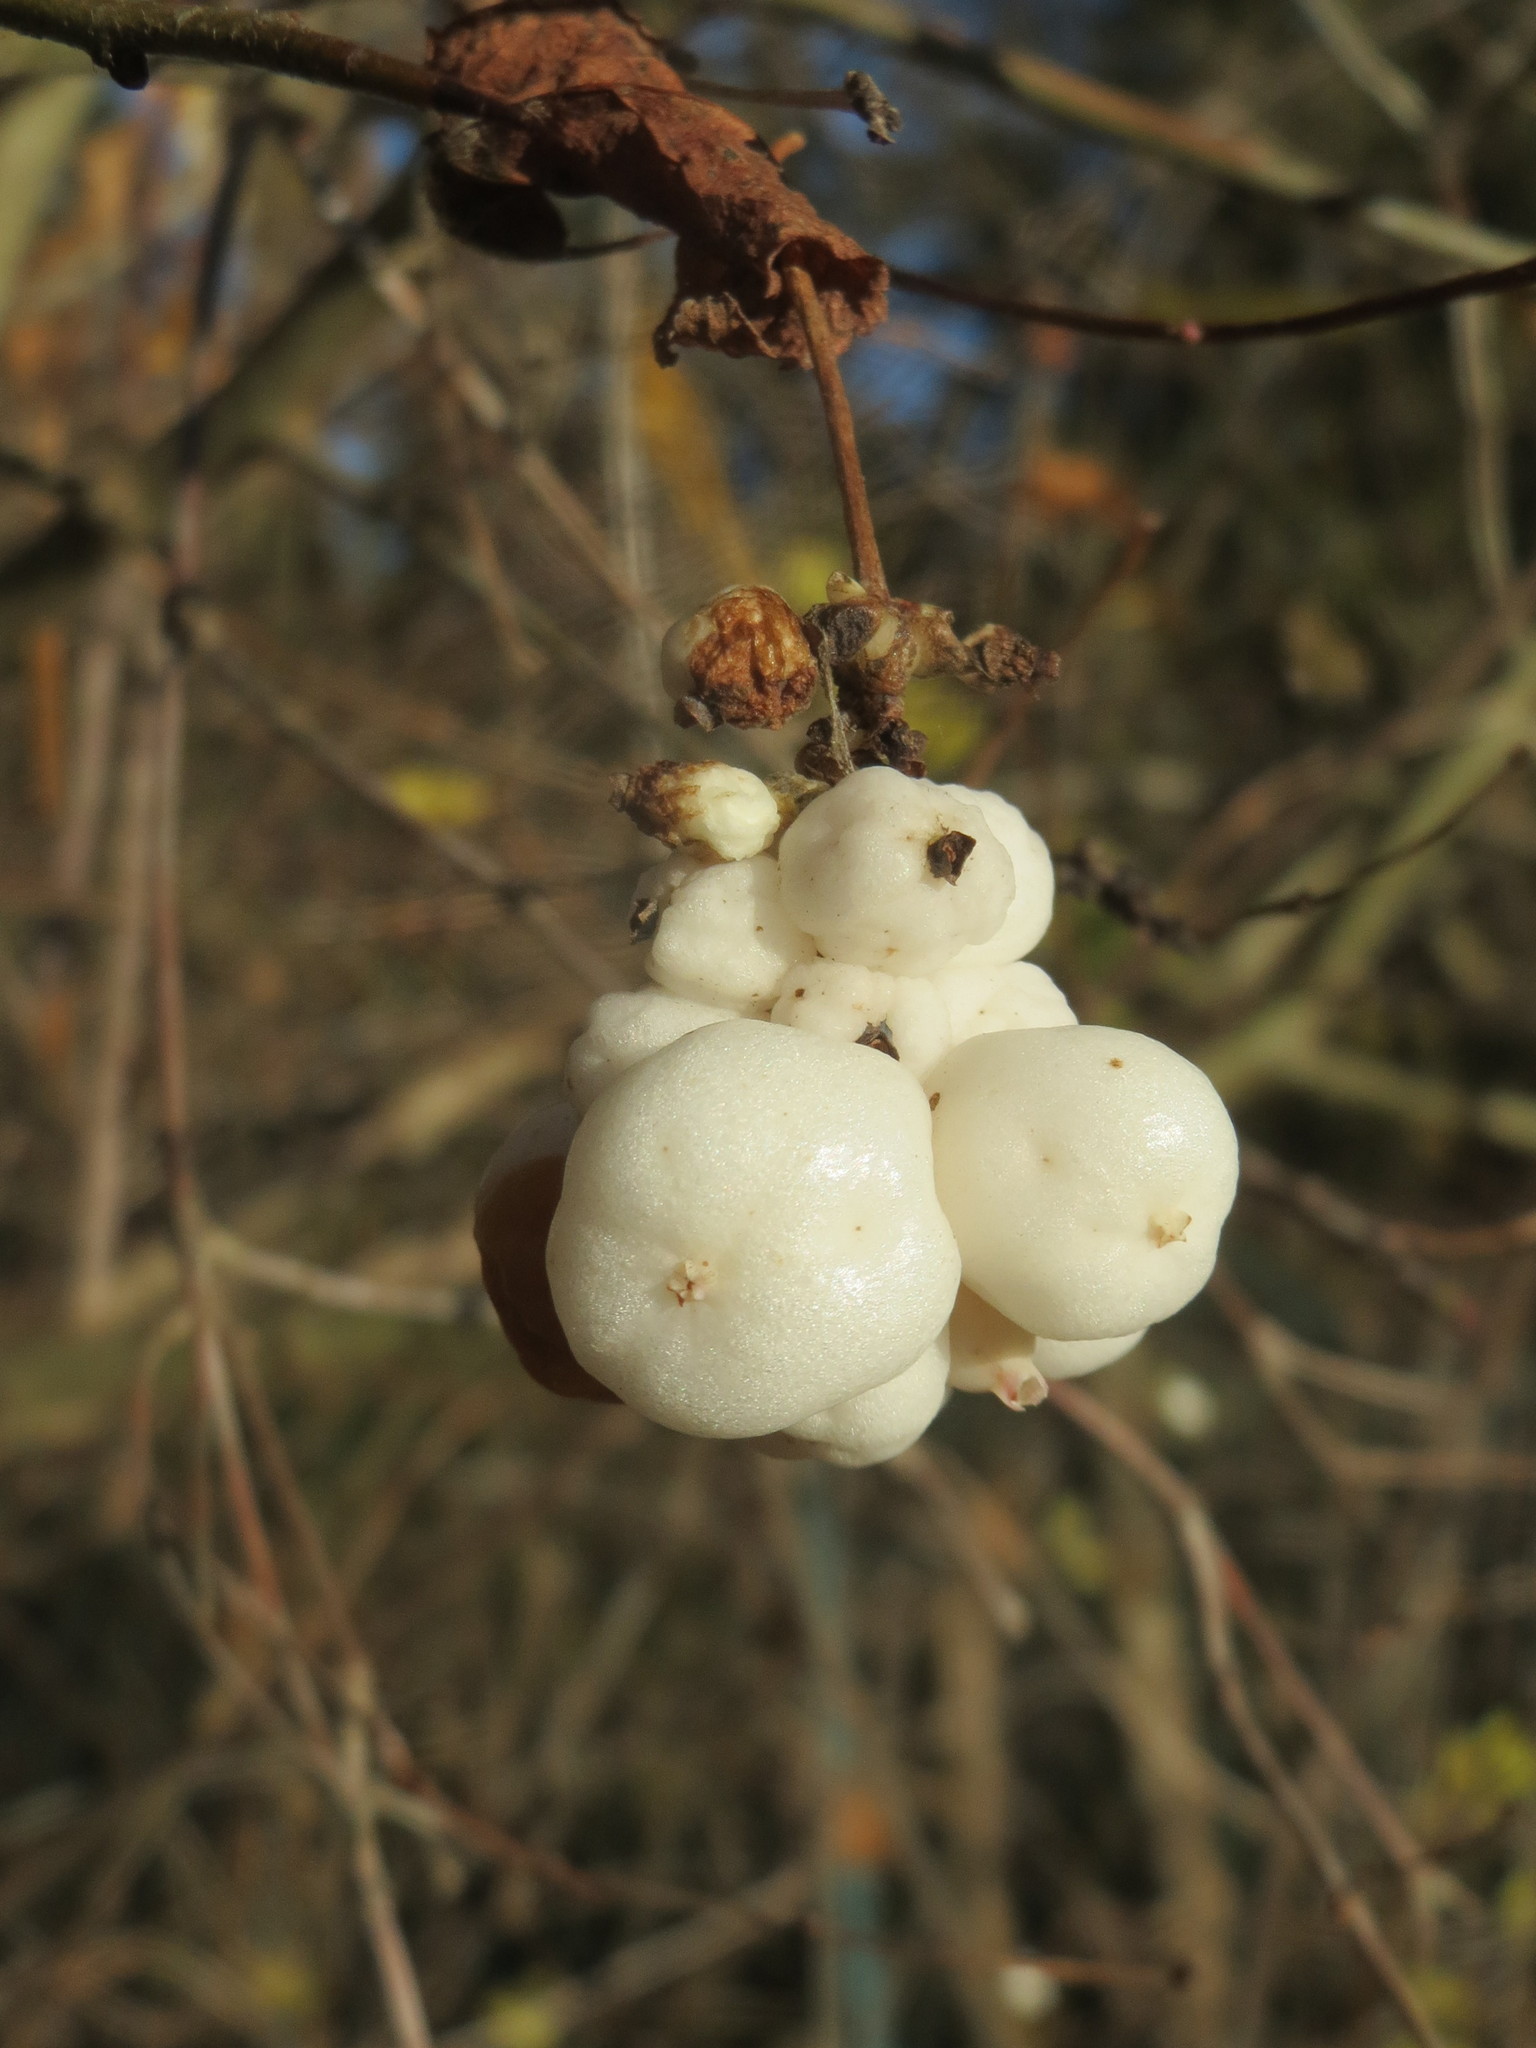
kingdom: Plantae
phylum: Tracheophyta
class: Magnoliopsida
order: Dipsacales
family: Caprifoliaceae
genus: Symphoricarpos
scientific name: Symphoricarpos albus
